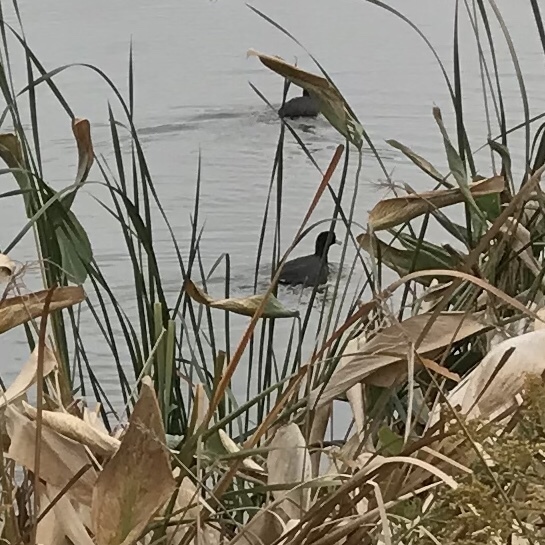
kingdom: Animalia
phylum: Chordata
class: Aves
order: Gruiformes
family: Rallidae
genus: Fulica
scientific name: Fulica americana
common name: American coot
